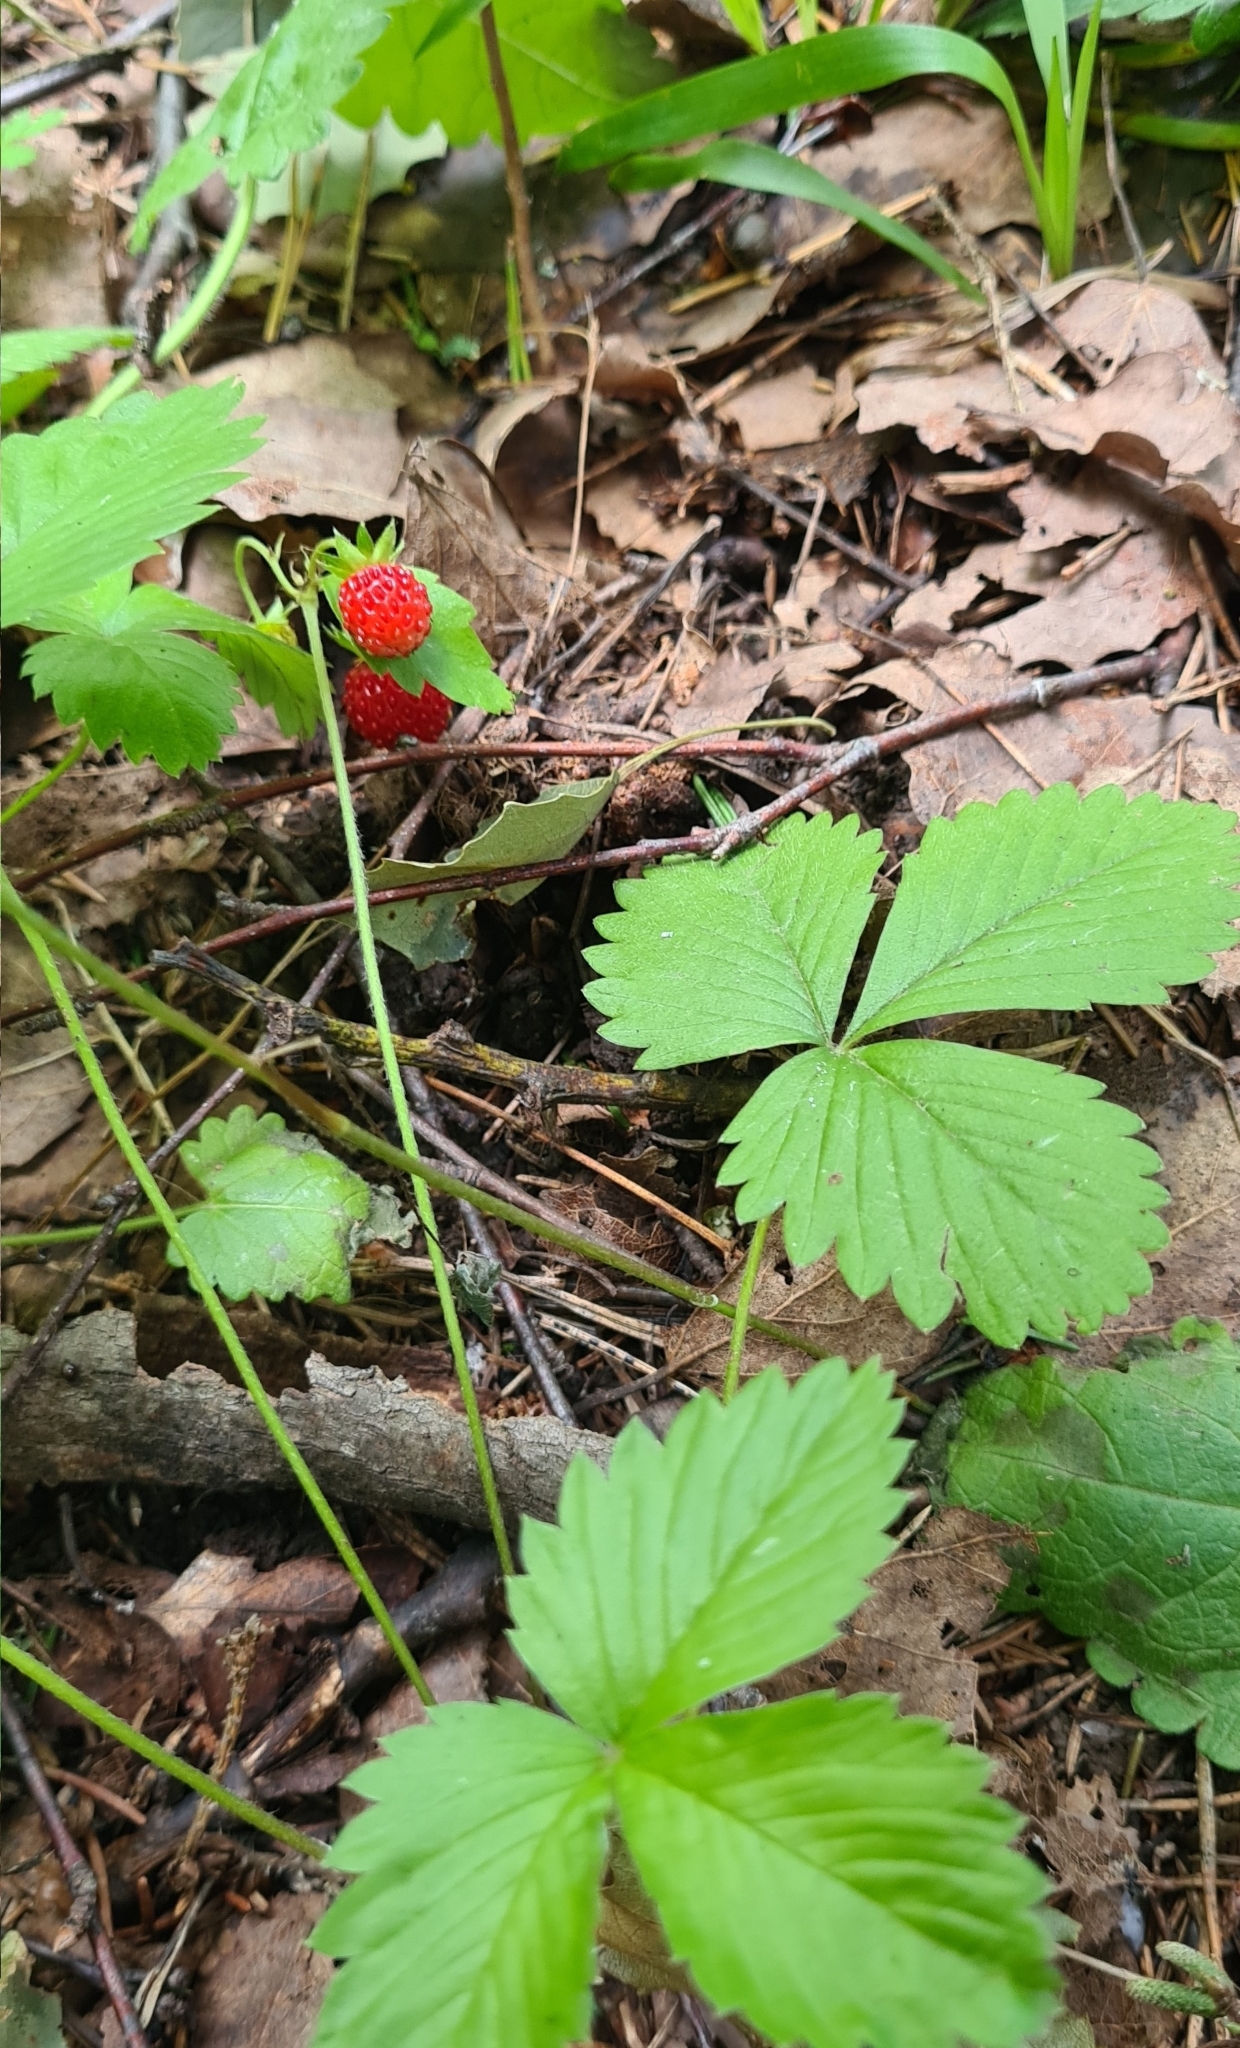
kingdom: Plantae
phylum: Tracheophyta
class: Magnoliopsida
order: Rosales
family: Rosaceae
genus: Fragaria
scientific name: Fragaria vesca
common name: Wild strawberry
